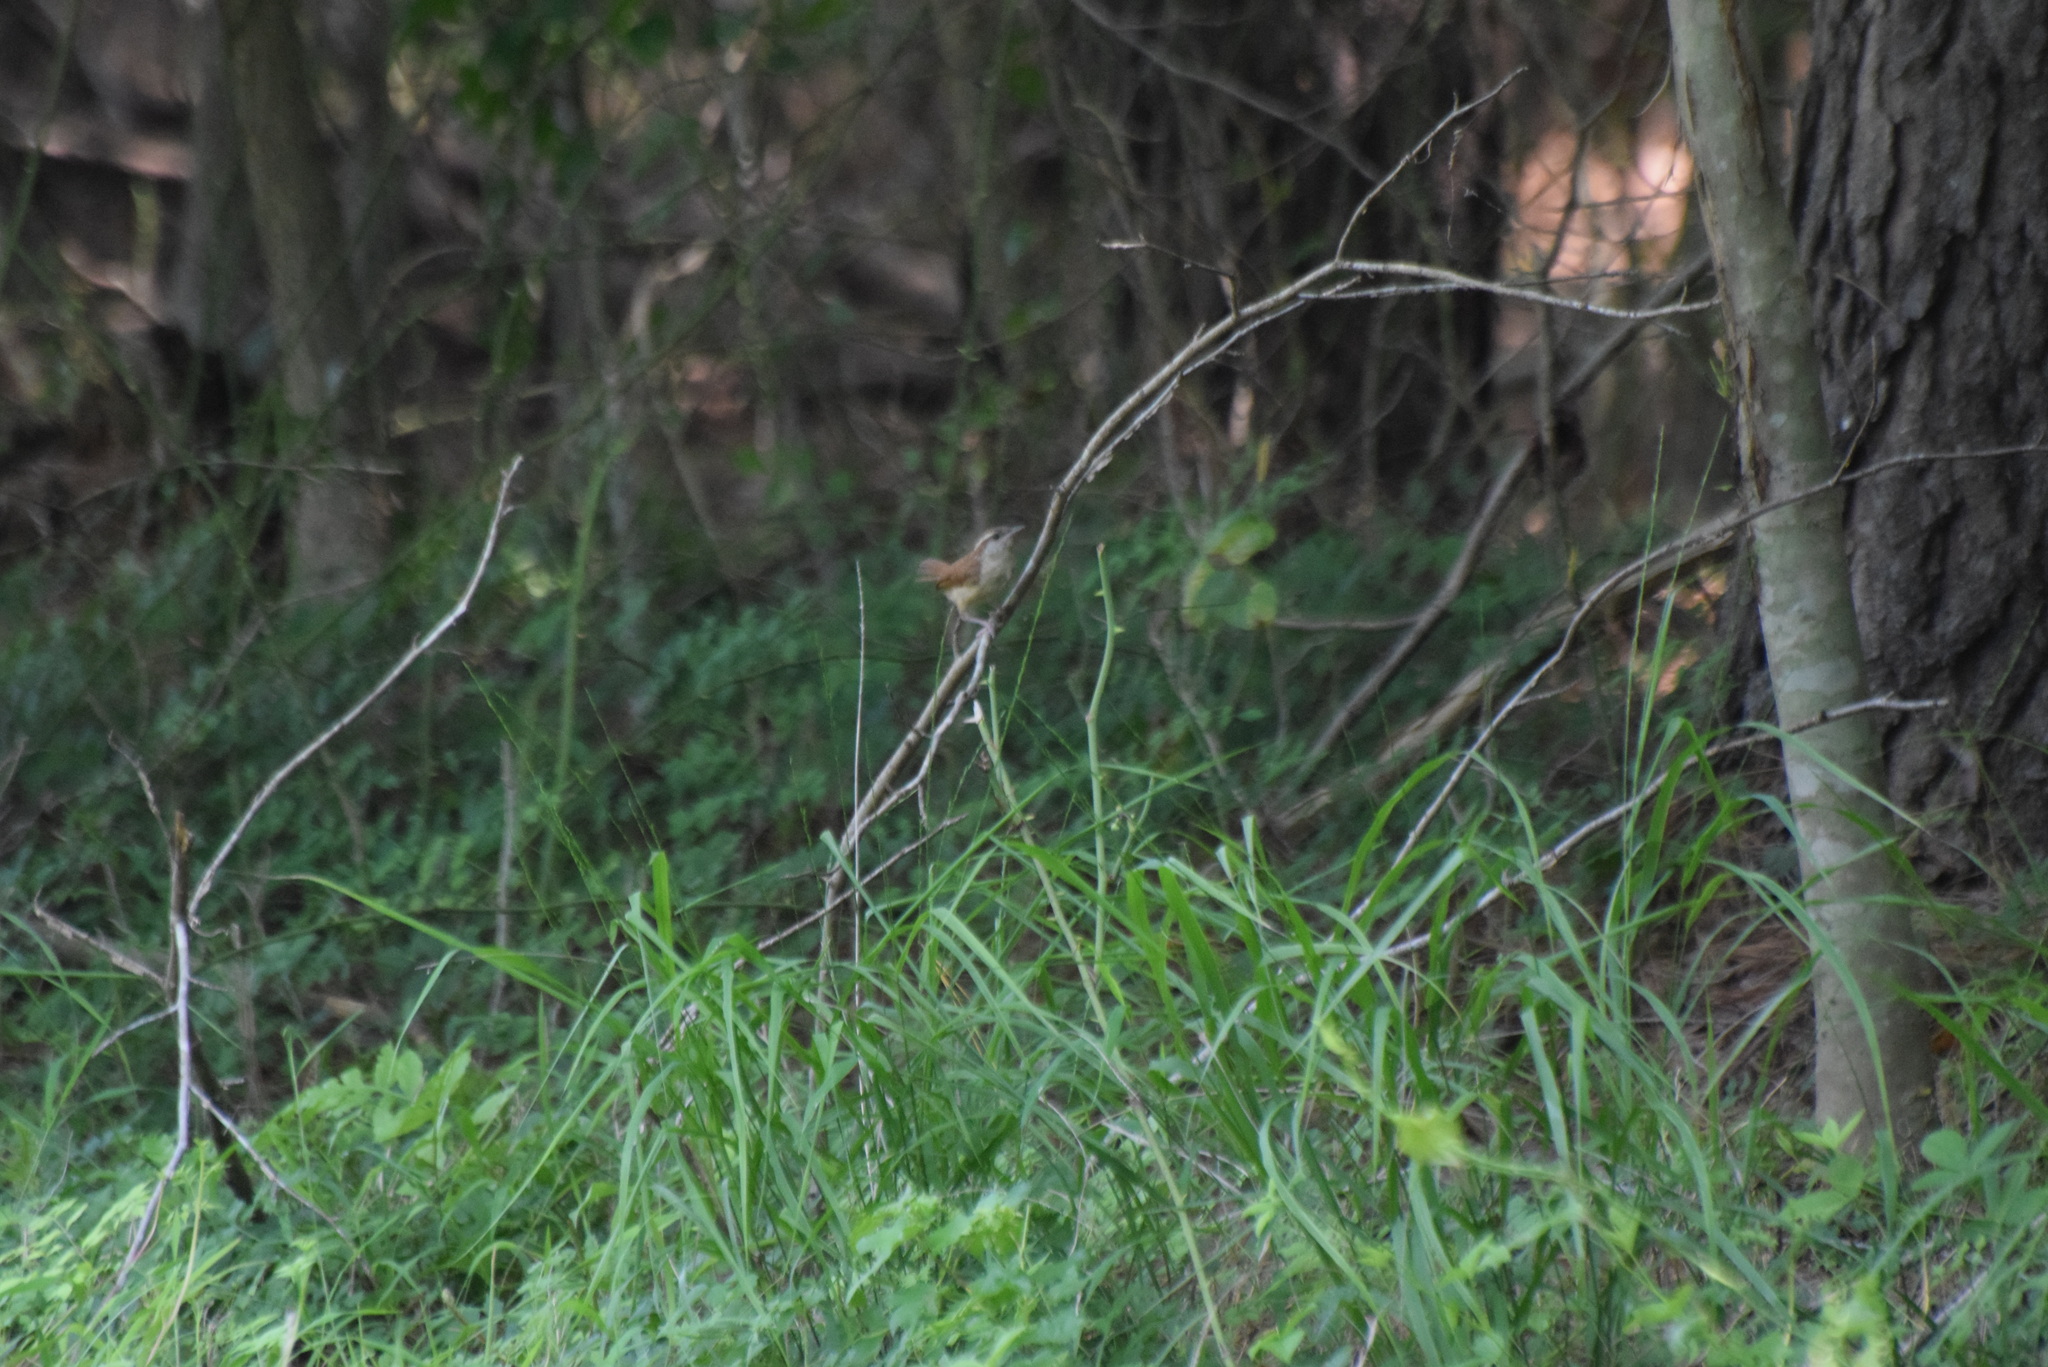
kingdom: Animalia
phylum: Chordata
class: Aves
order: Passeriformes
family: Troglodytidae
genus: Thryothorus
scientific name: Thryothorus ludovicianus
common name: Carolina wren
